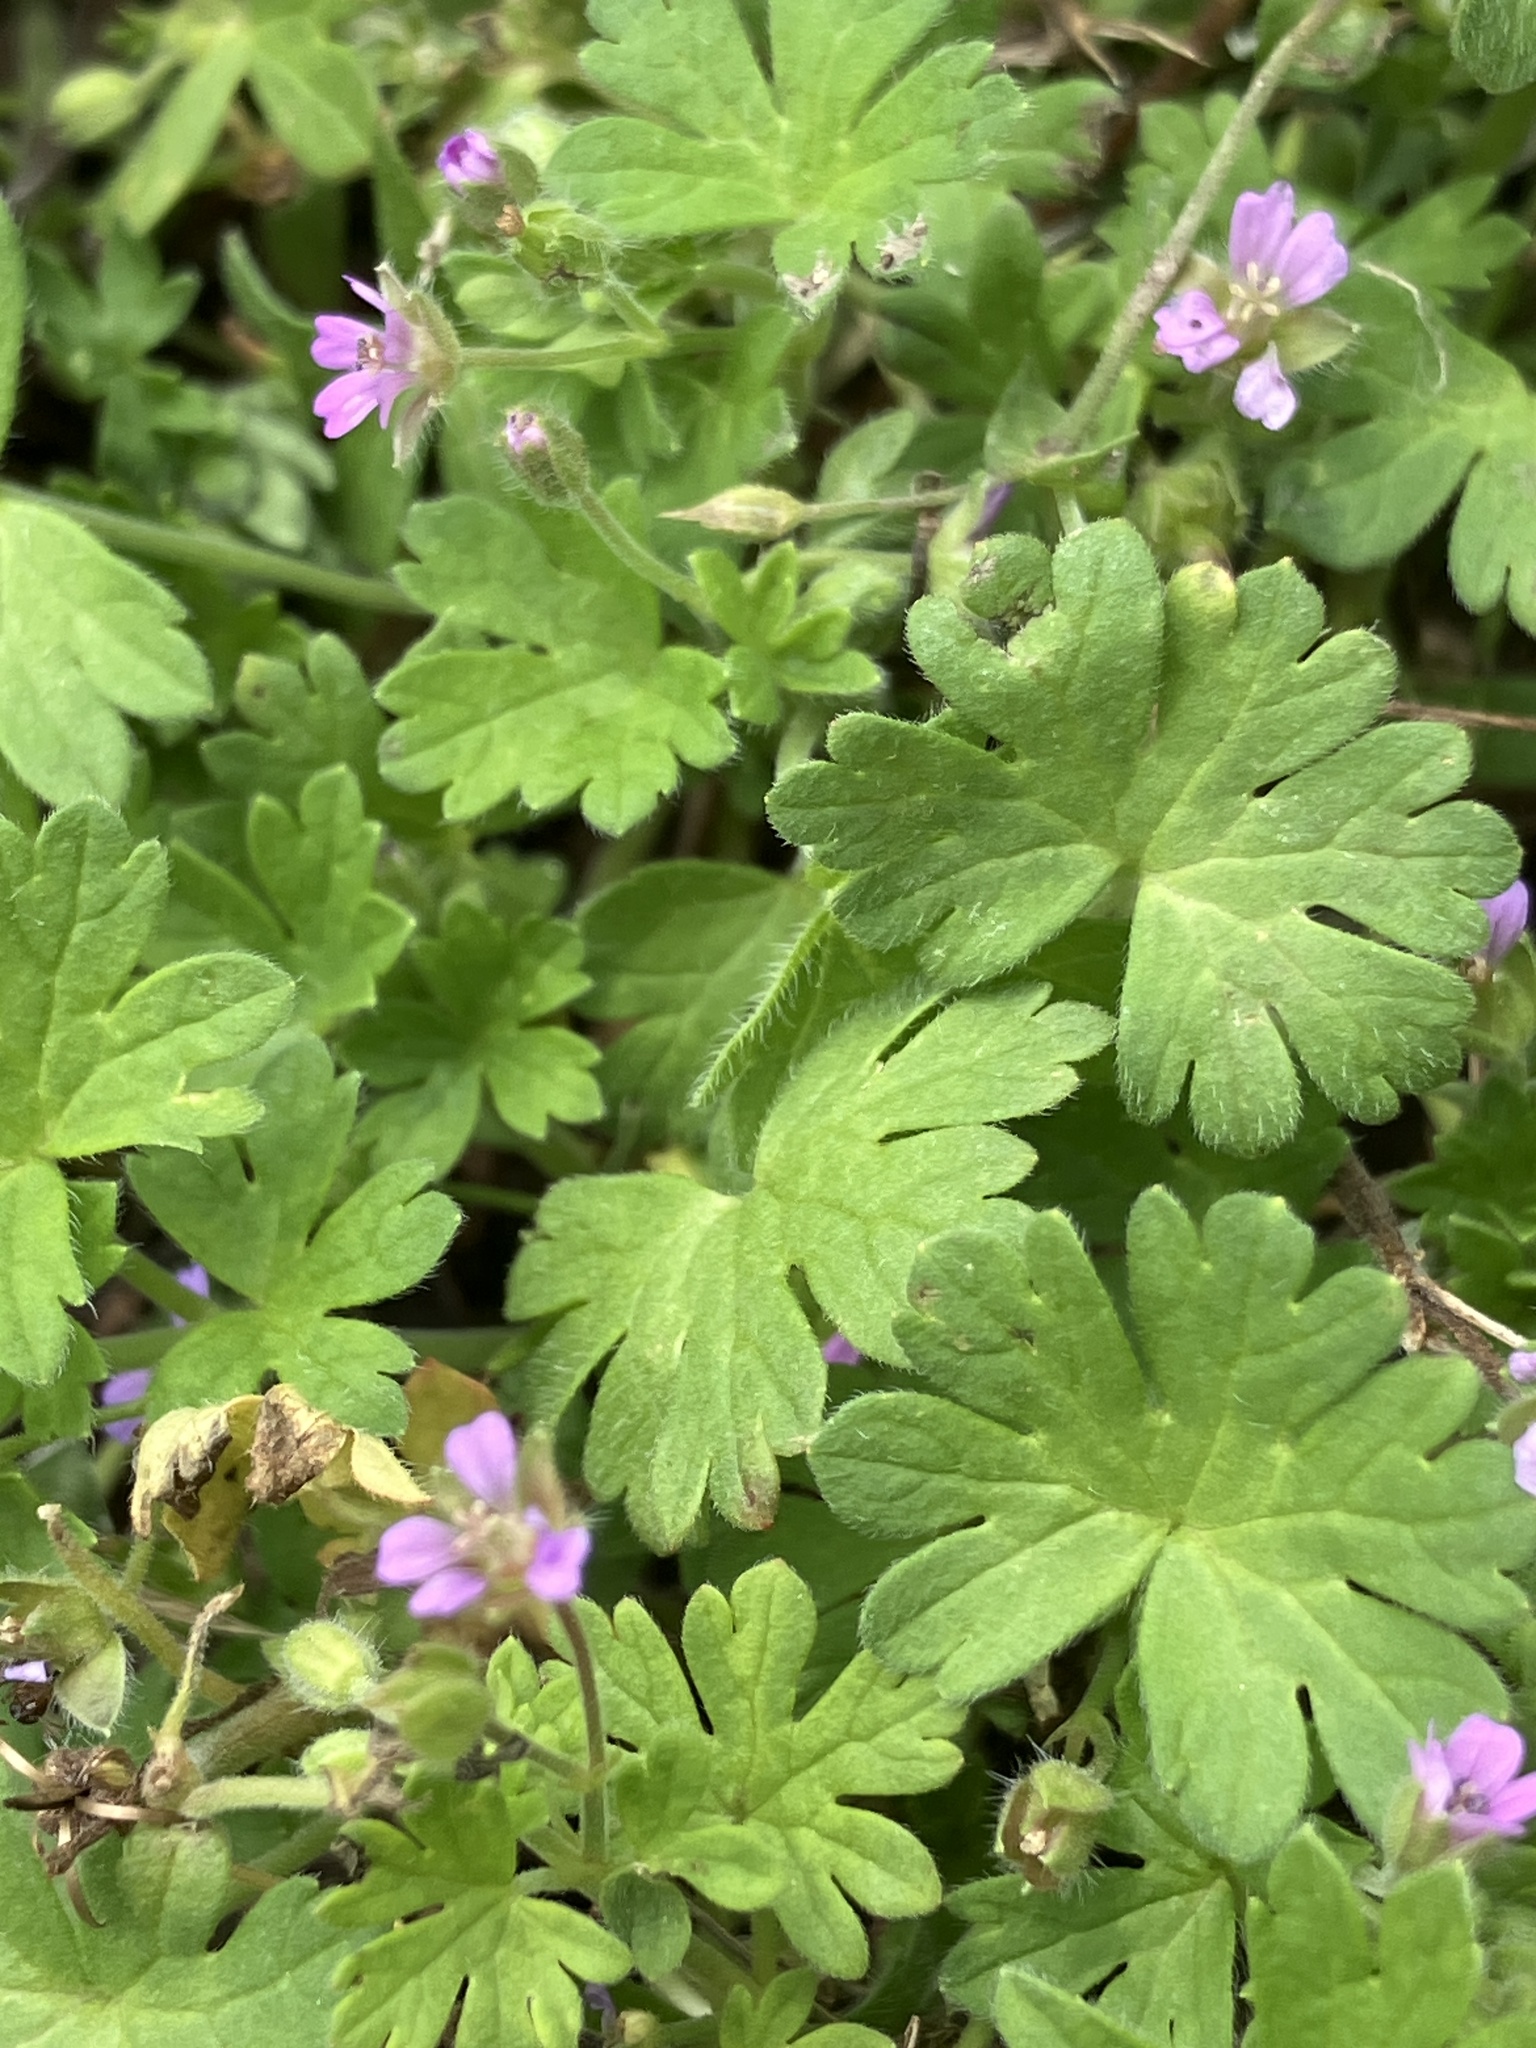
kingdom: Plantae
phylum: Tracheophyta
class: Magnoliopsida
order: Geraniales
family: Geraniaceae
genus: Geranium
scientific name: Geranium pusillum
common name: Small geranium
